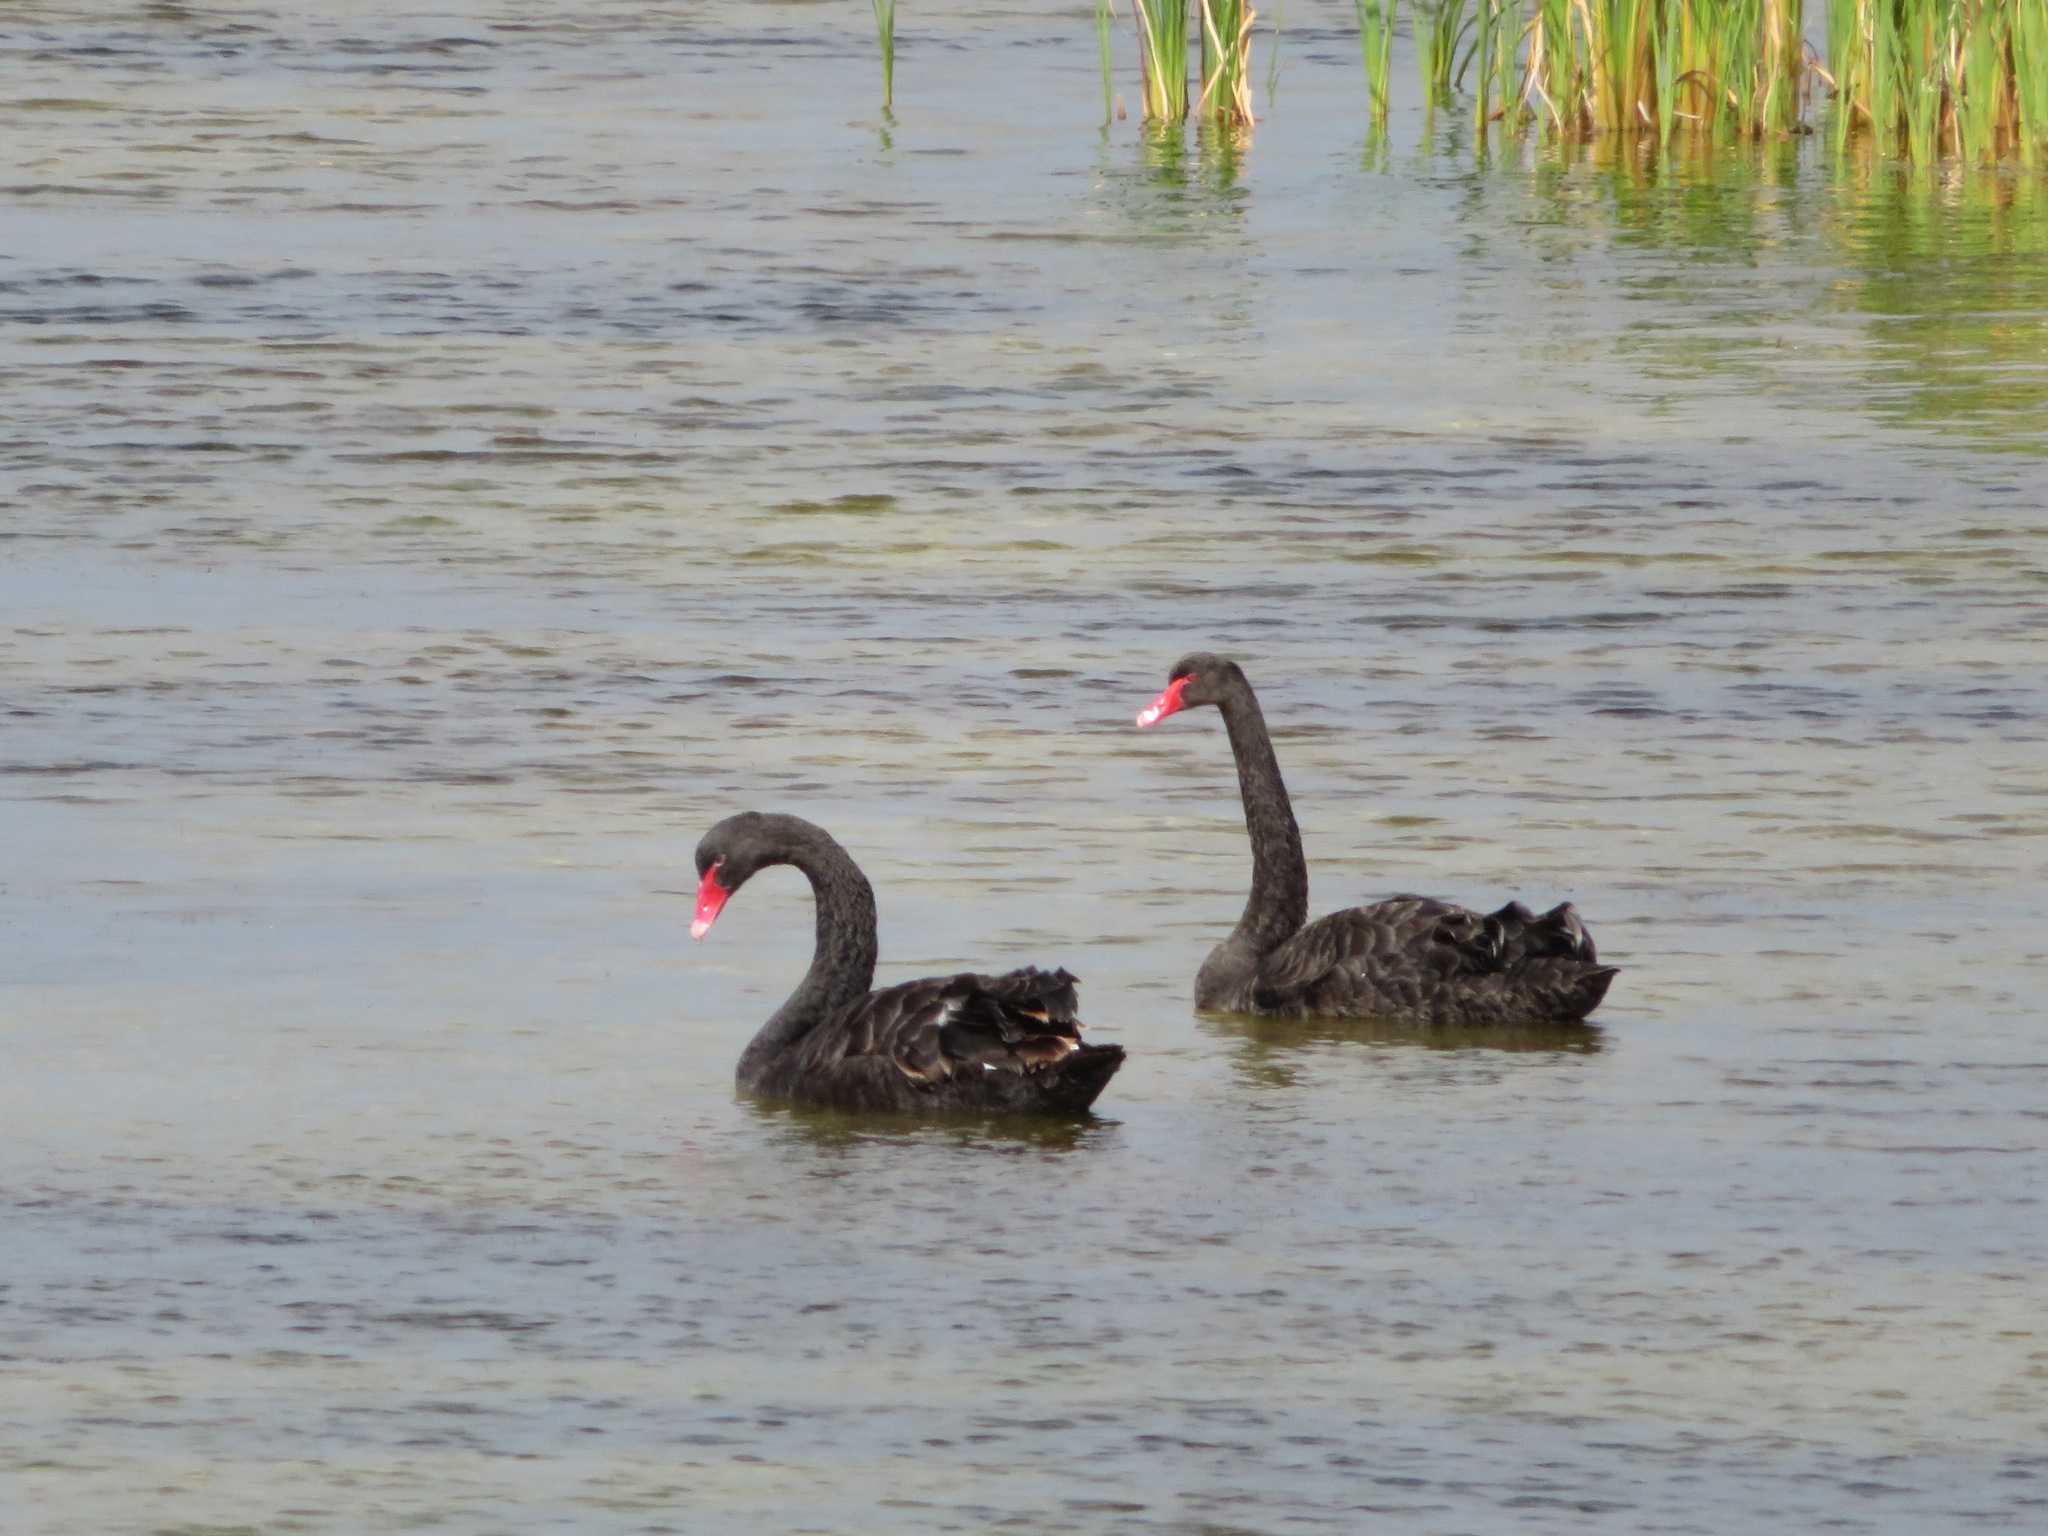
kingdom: Animalia
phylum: Chordata
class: Aves
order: Anseriformes
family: Anatidae
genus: Cygnus
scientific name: Cygnus atratus
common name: Black swan
